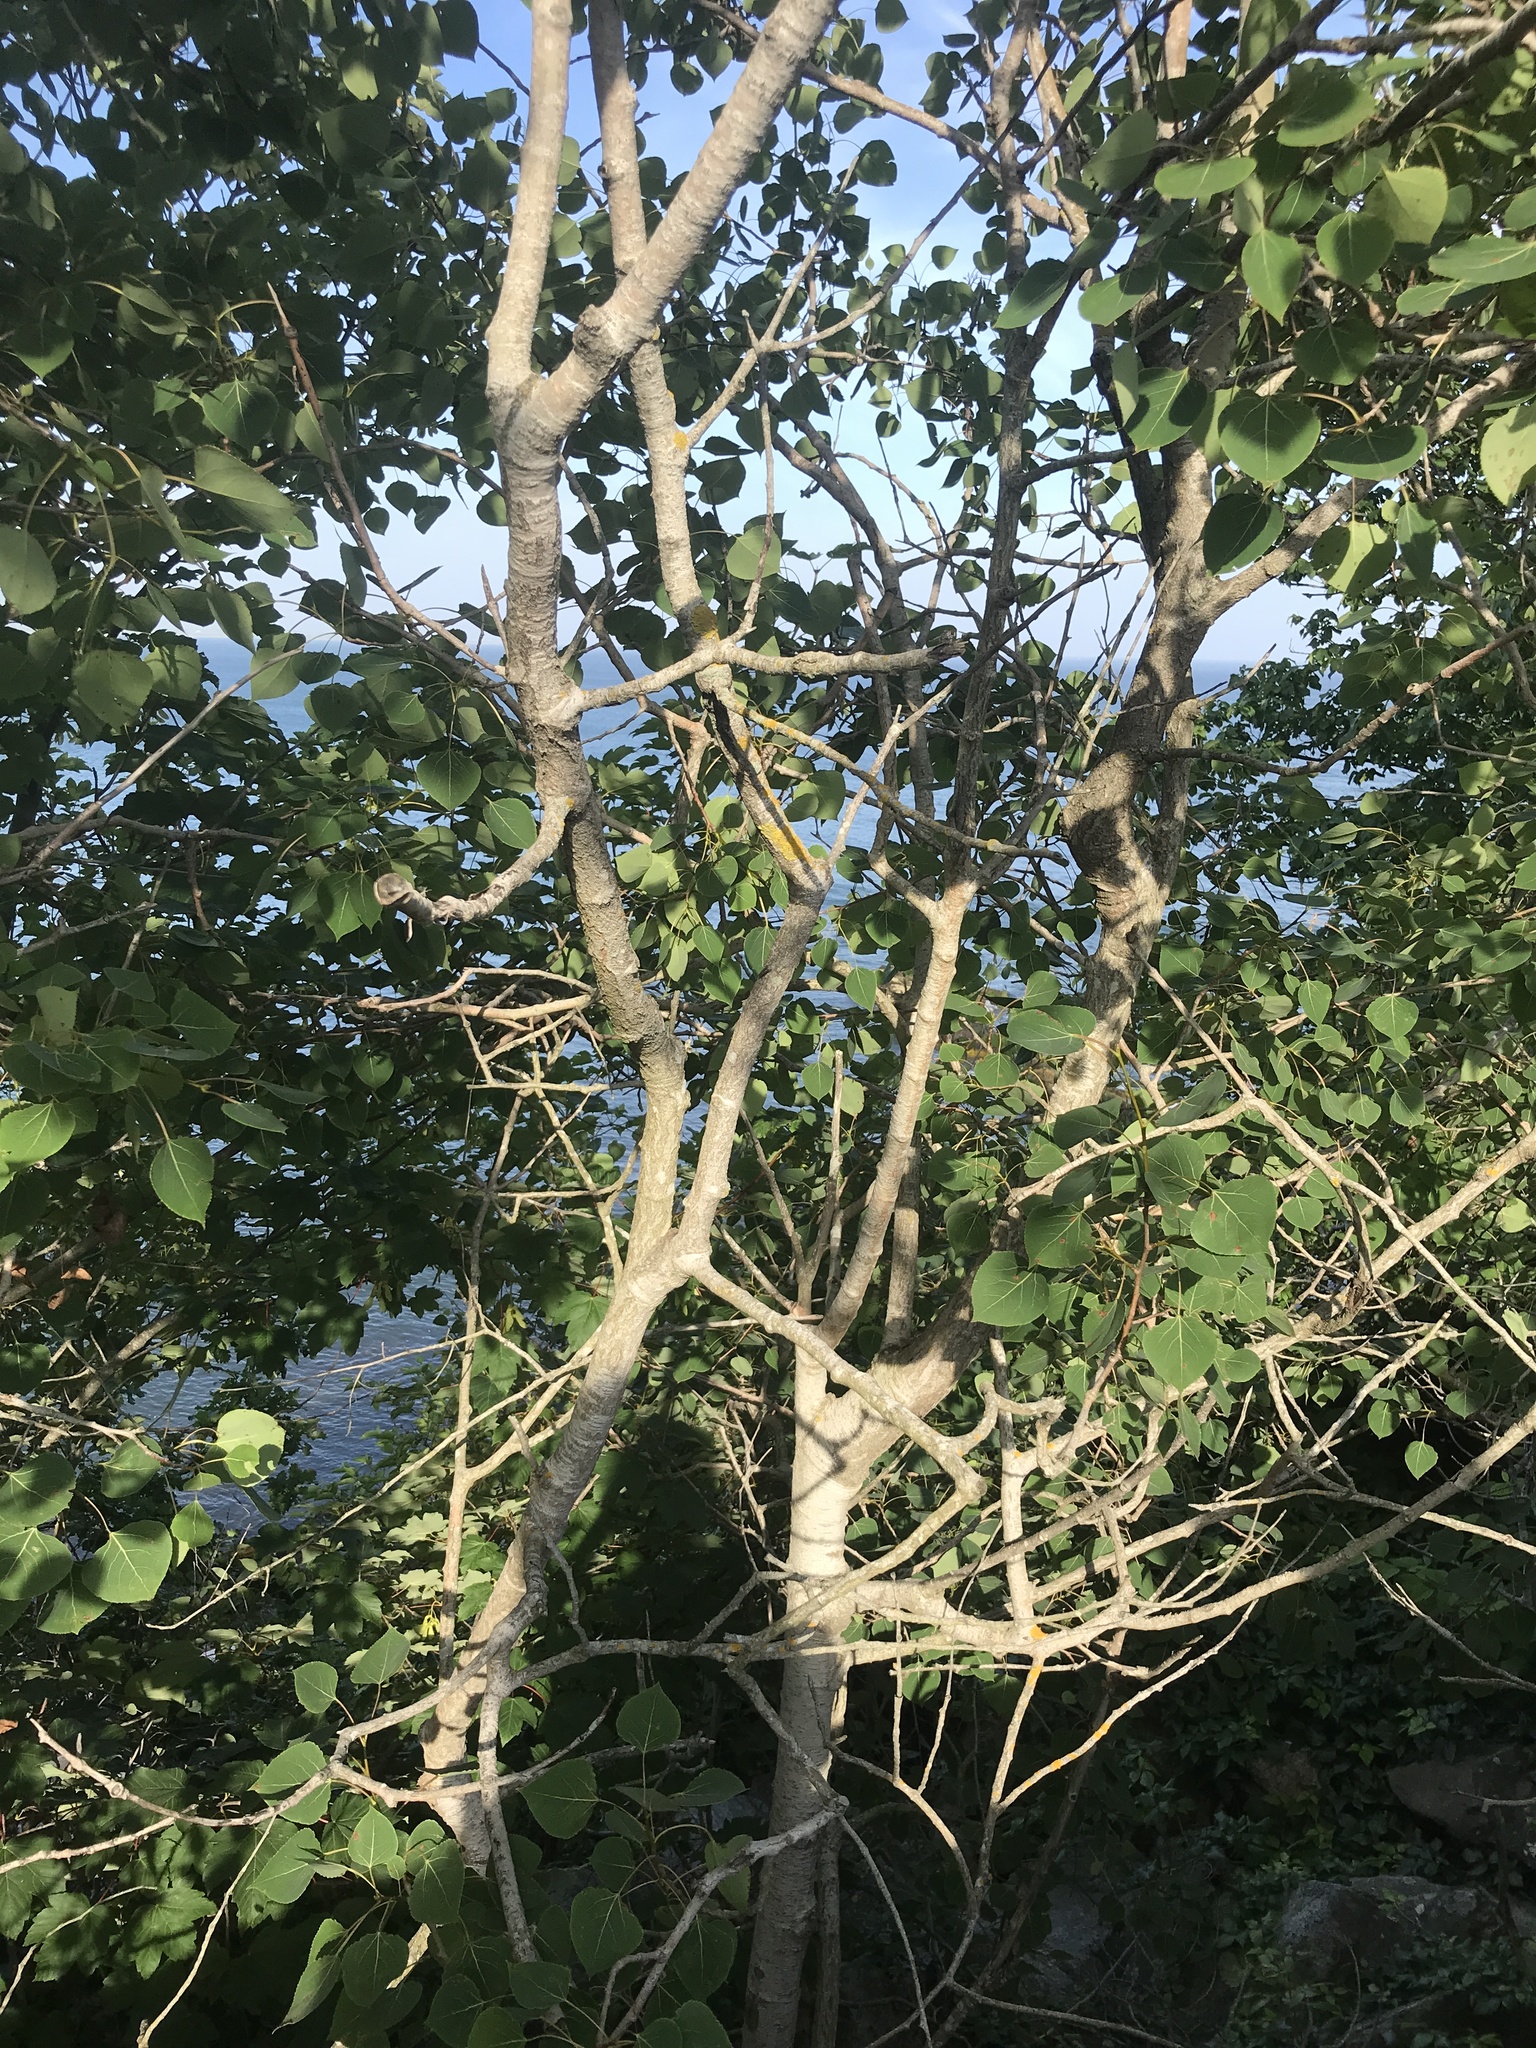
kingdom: Plantae
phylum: Tracheophyta
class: Magnoliopsida
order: Malpighiales
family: Salicaceae
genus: Populus
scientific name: Populus tremuloides
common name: Quaking aspen
